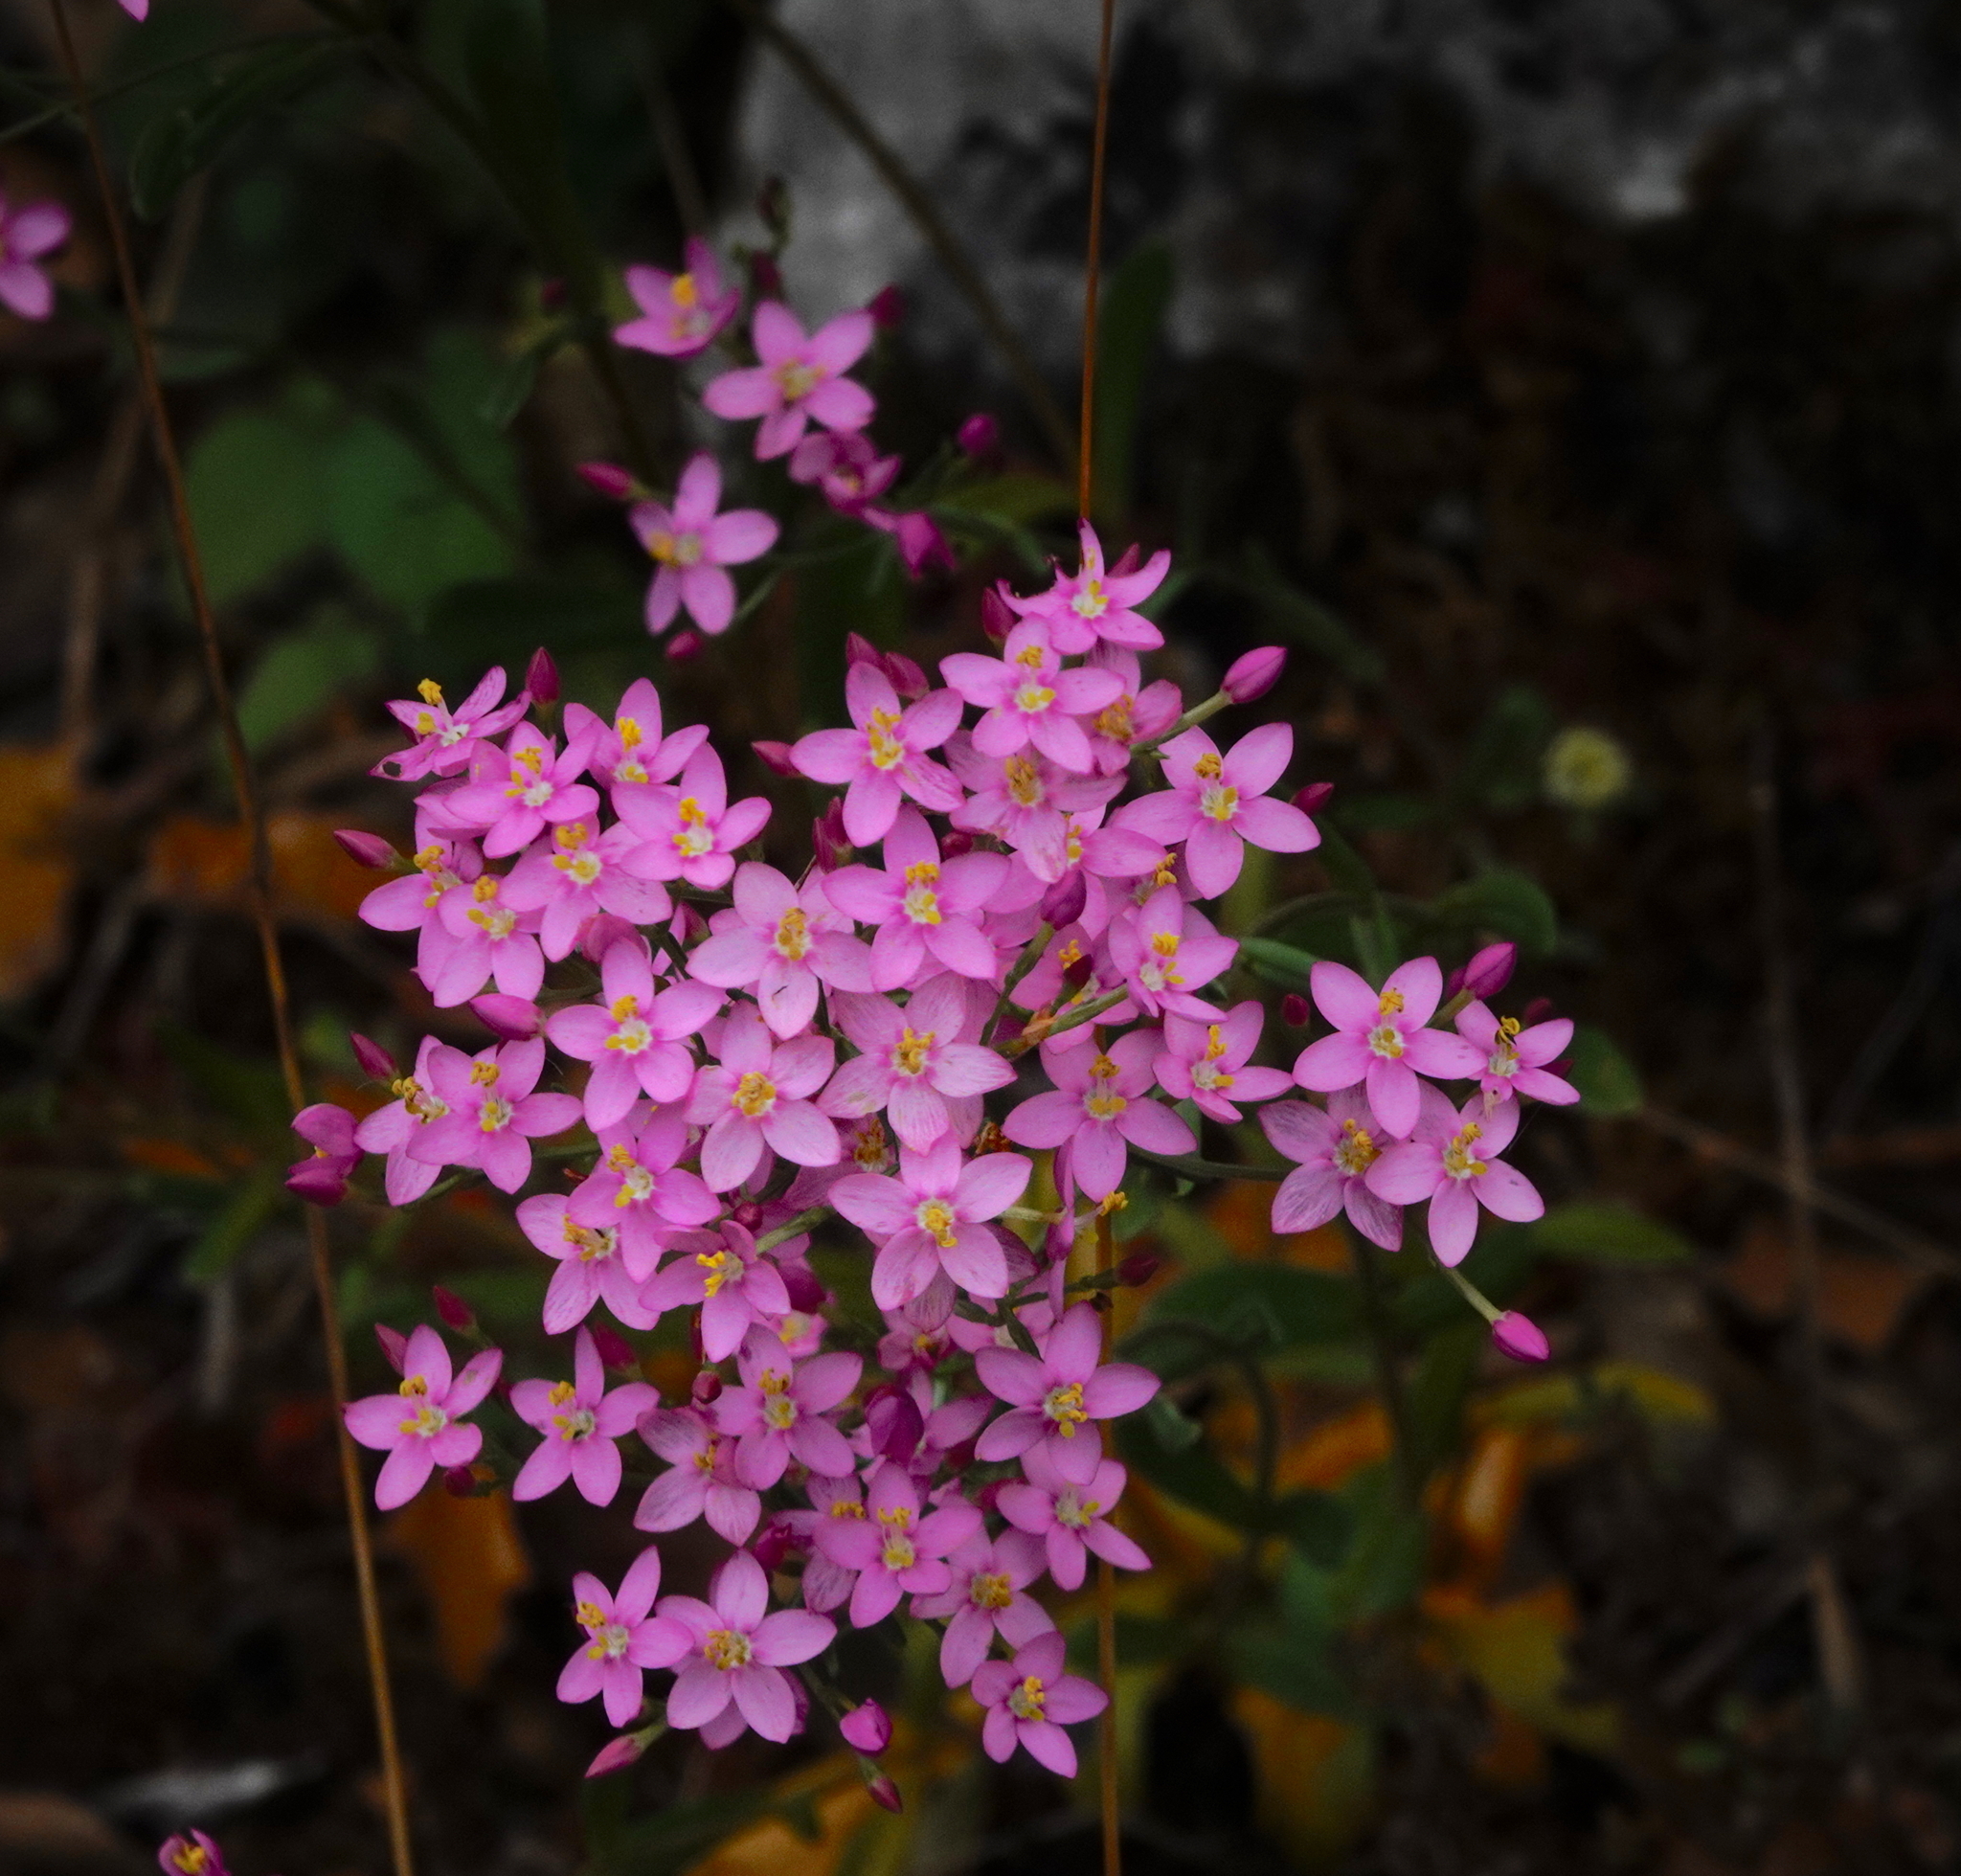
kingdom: Plantae
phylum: Tracheophyta
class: Magnoliopsida
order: Gentianales
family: Gentianaceae
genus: Centaurium
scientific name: Centaurium erythraea
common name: Common centaury
